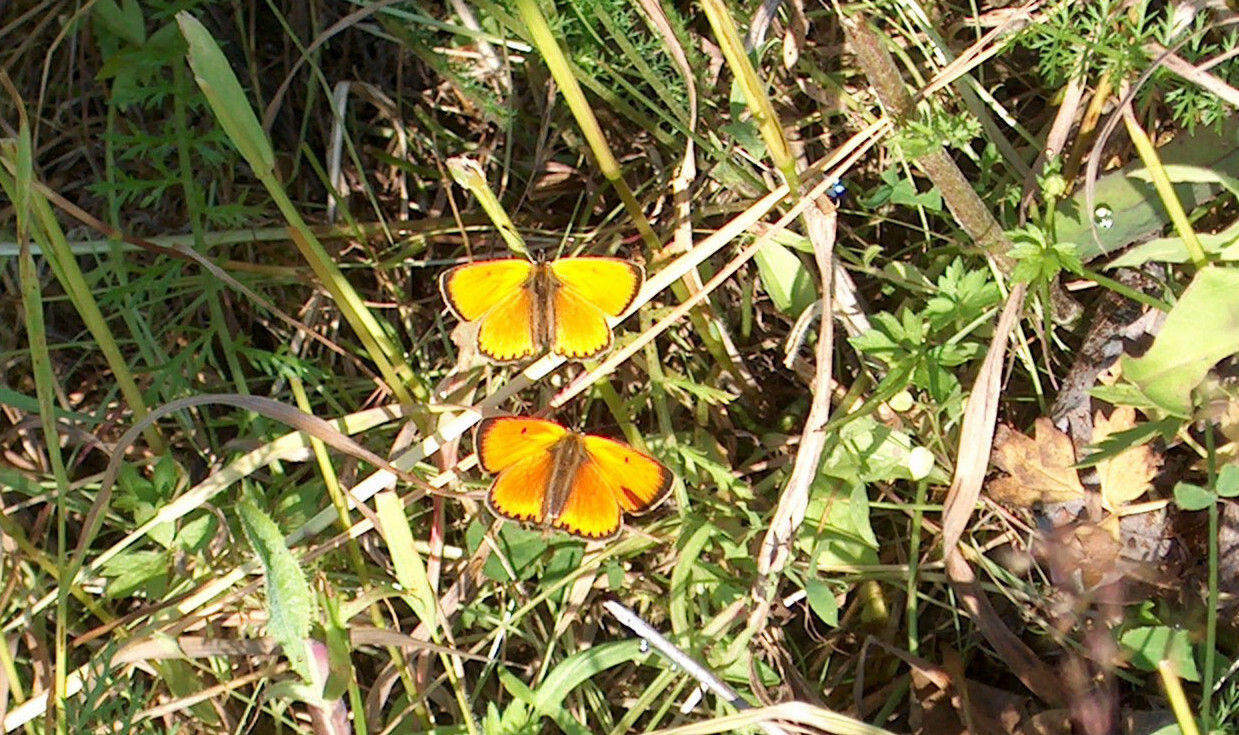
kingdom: Animalia
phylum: Arthropoda
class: Insecta
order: Lepidoptera
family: Lycaenidae
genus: Lycaena
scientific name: Lycaena virgaureae
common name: Scarce copper
